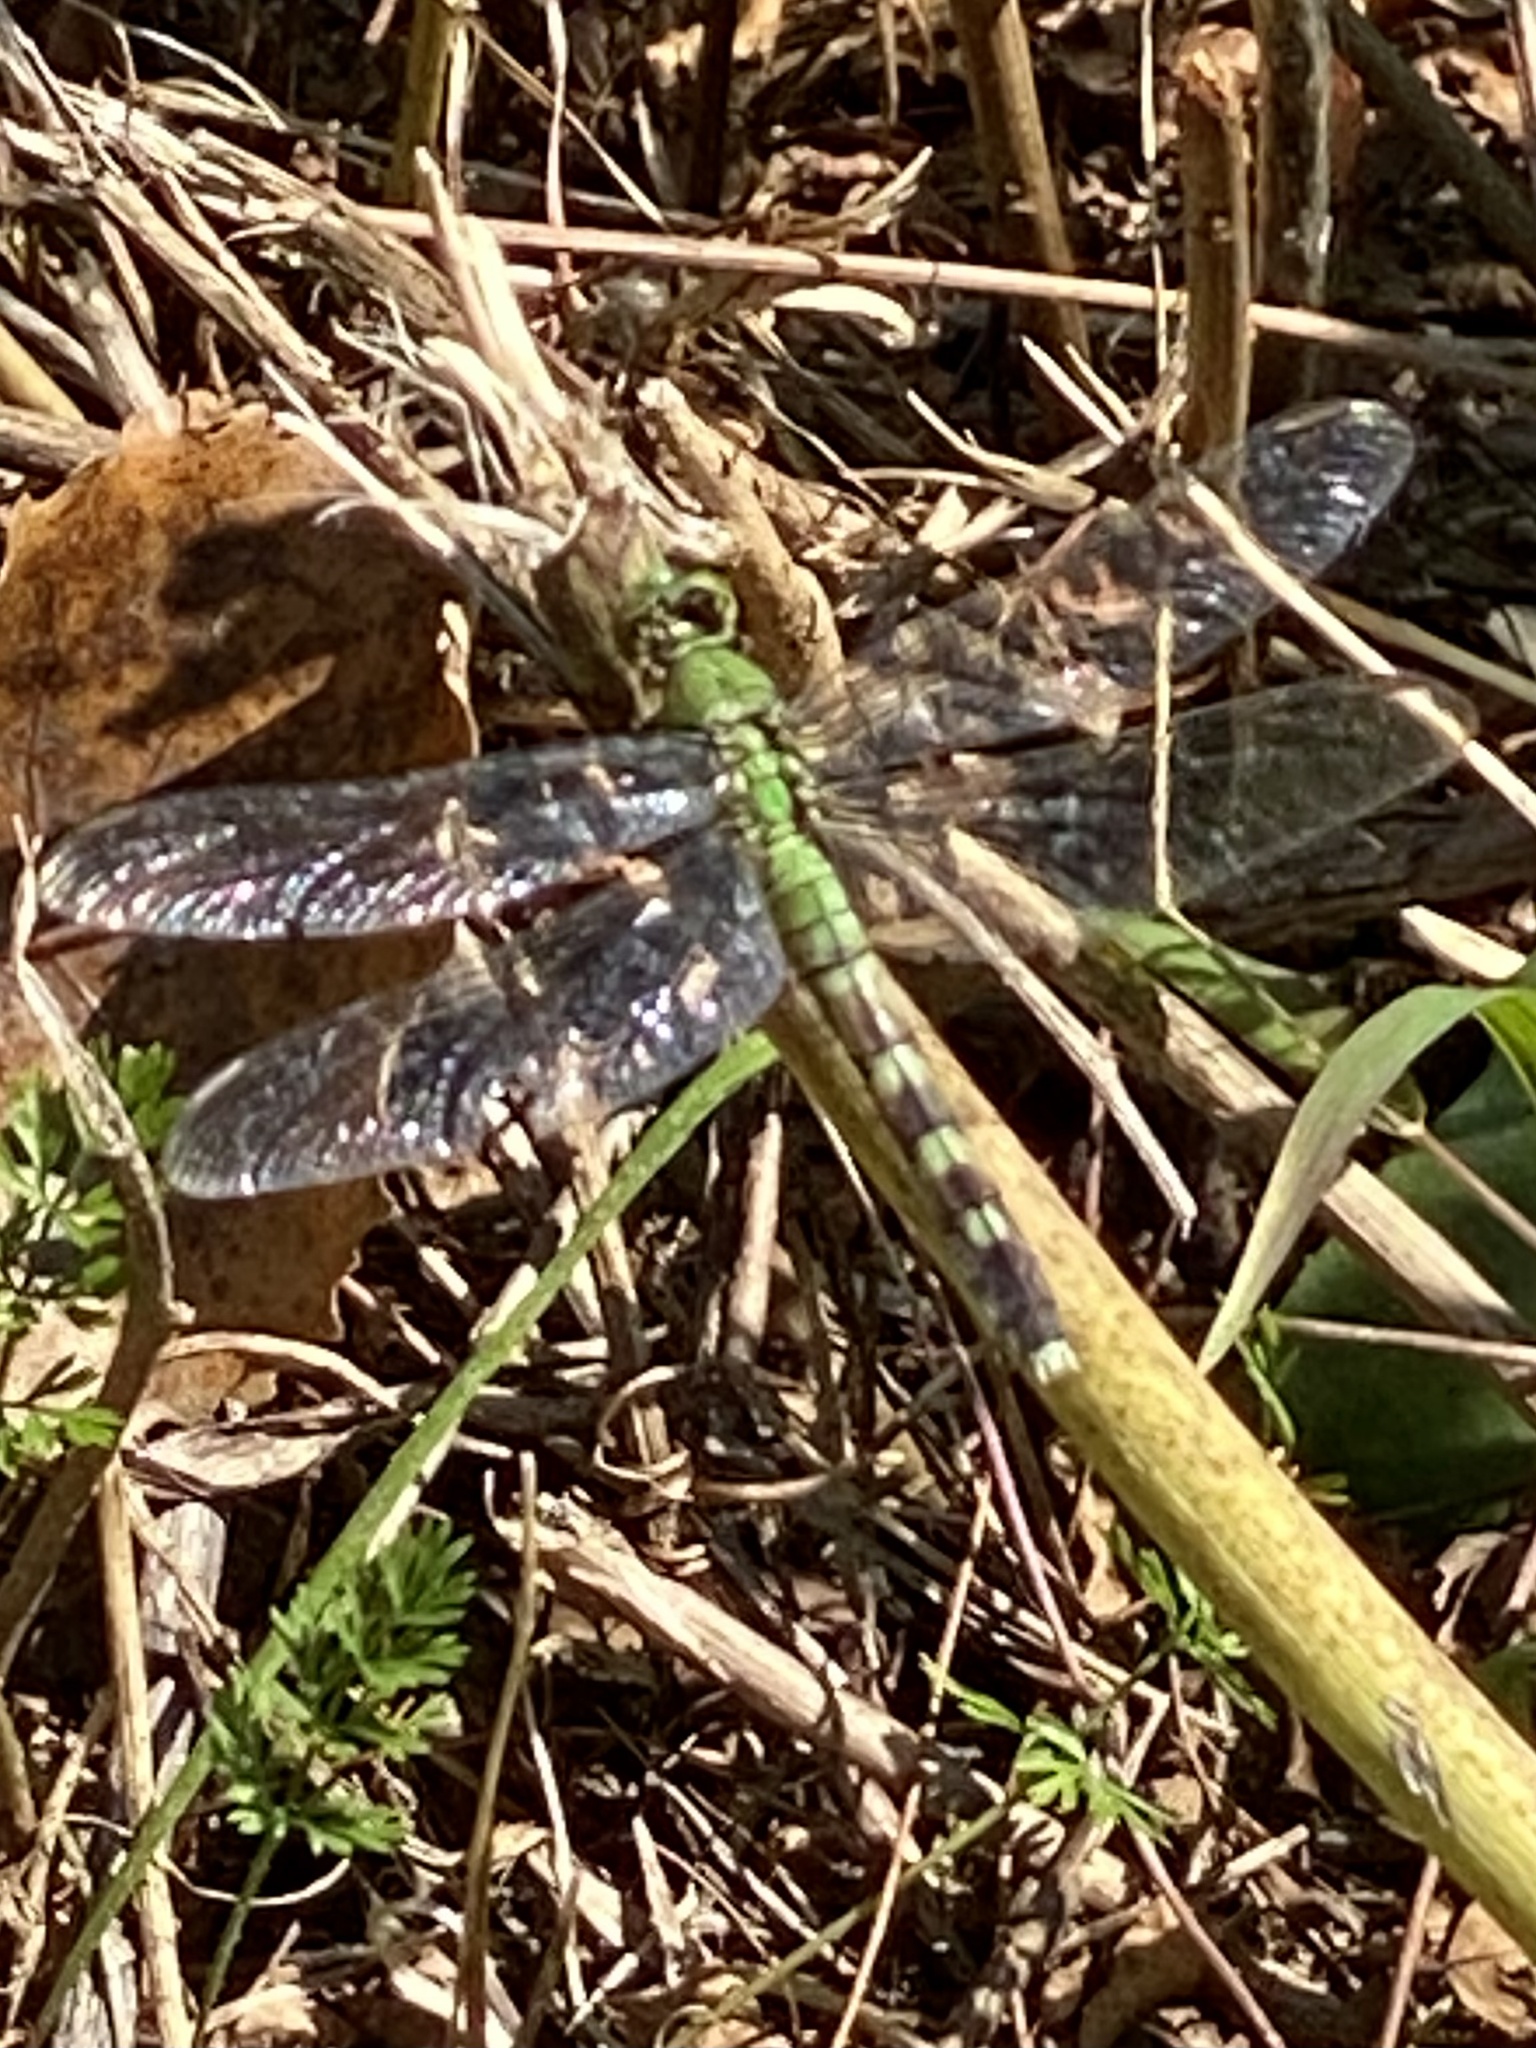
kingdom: Animalia
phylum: Arthropoda
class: Insecta
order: Odonata
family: Libellulidae
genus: Erythemis
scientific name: Erythemis simplicicollis
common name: Eastern pondhawk
